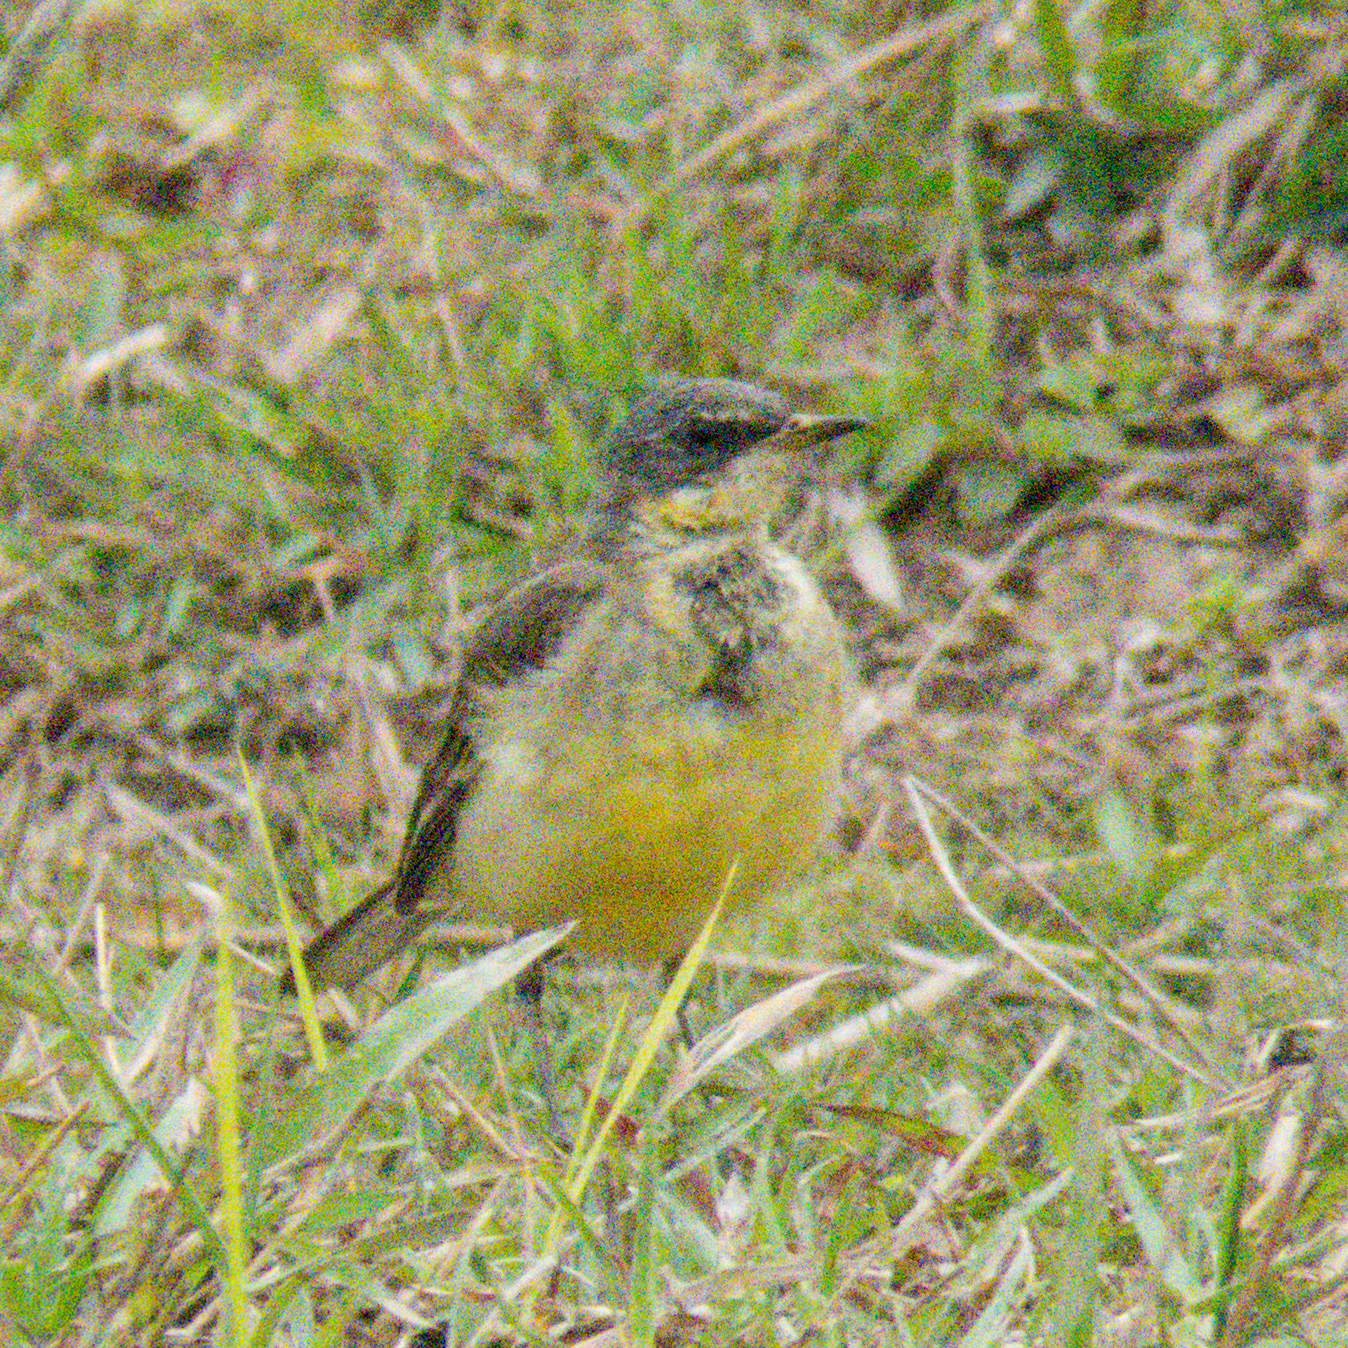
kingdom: Animalia
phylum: Chordata
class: Aves
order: Passeriformes
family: Motacillidae
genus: Motacilla
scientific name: Motacilla tschutschensis
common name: Eastern yellow wagtail
